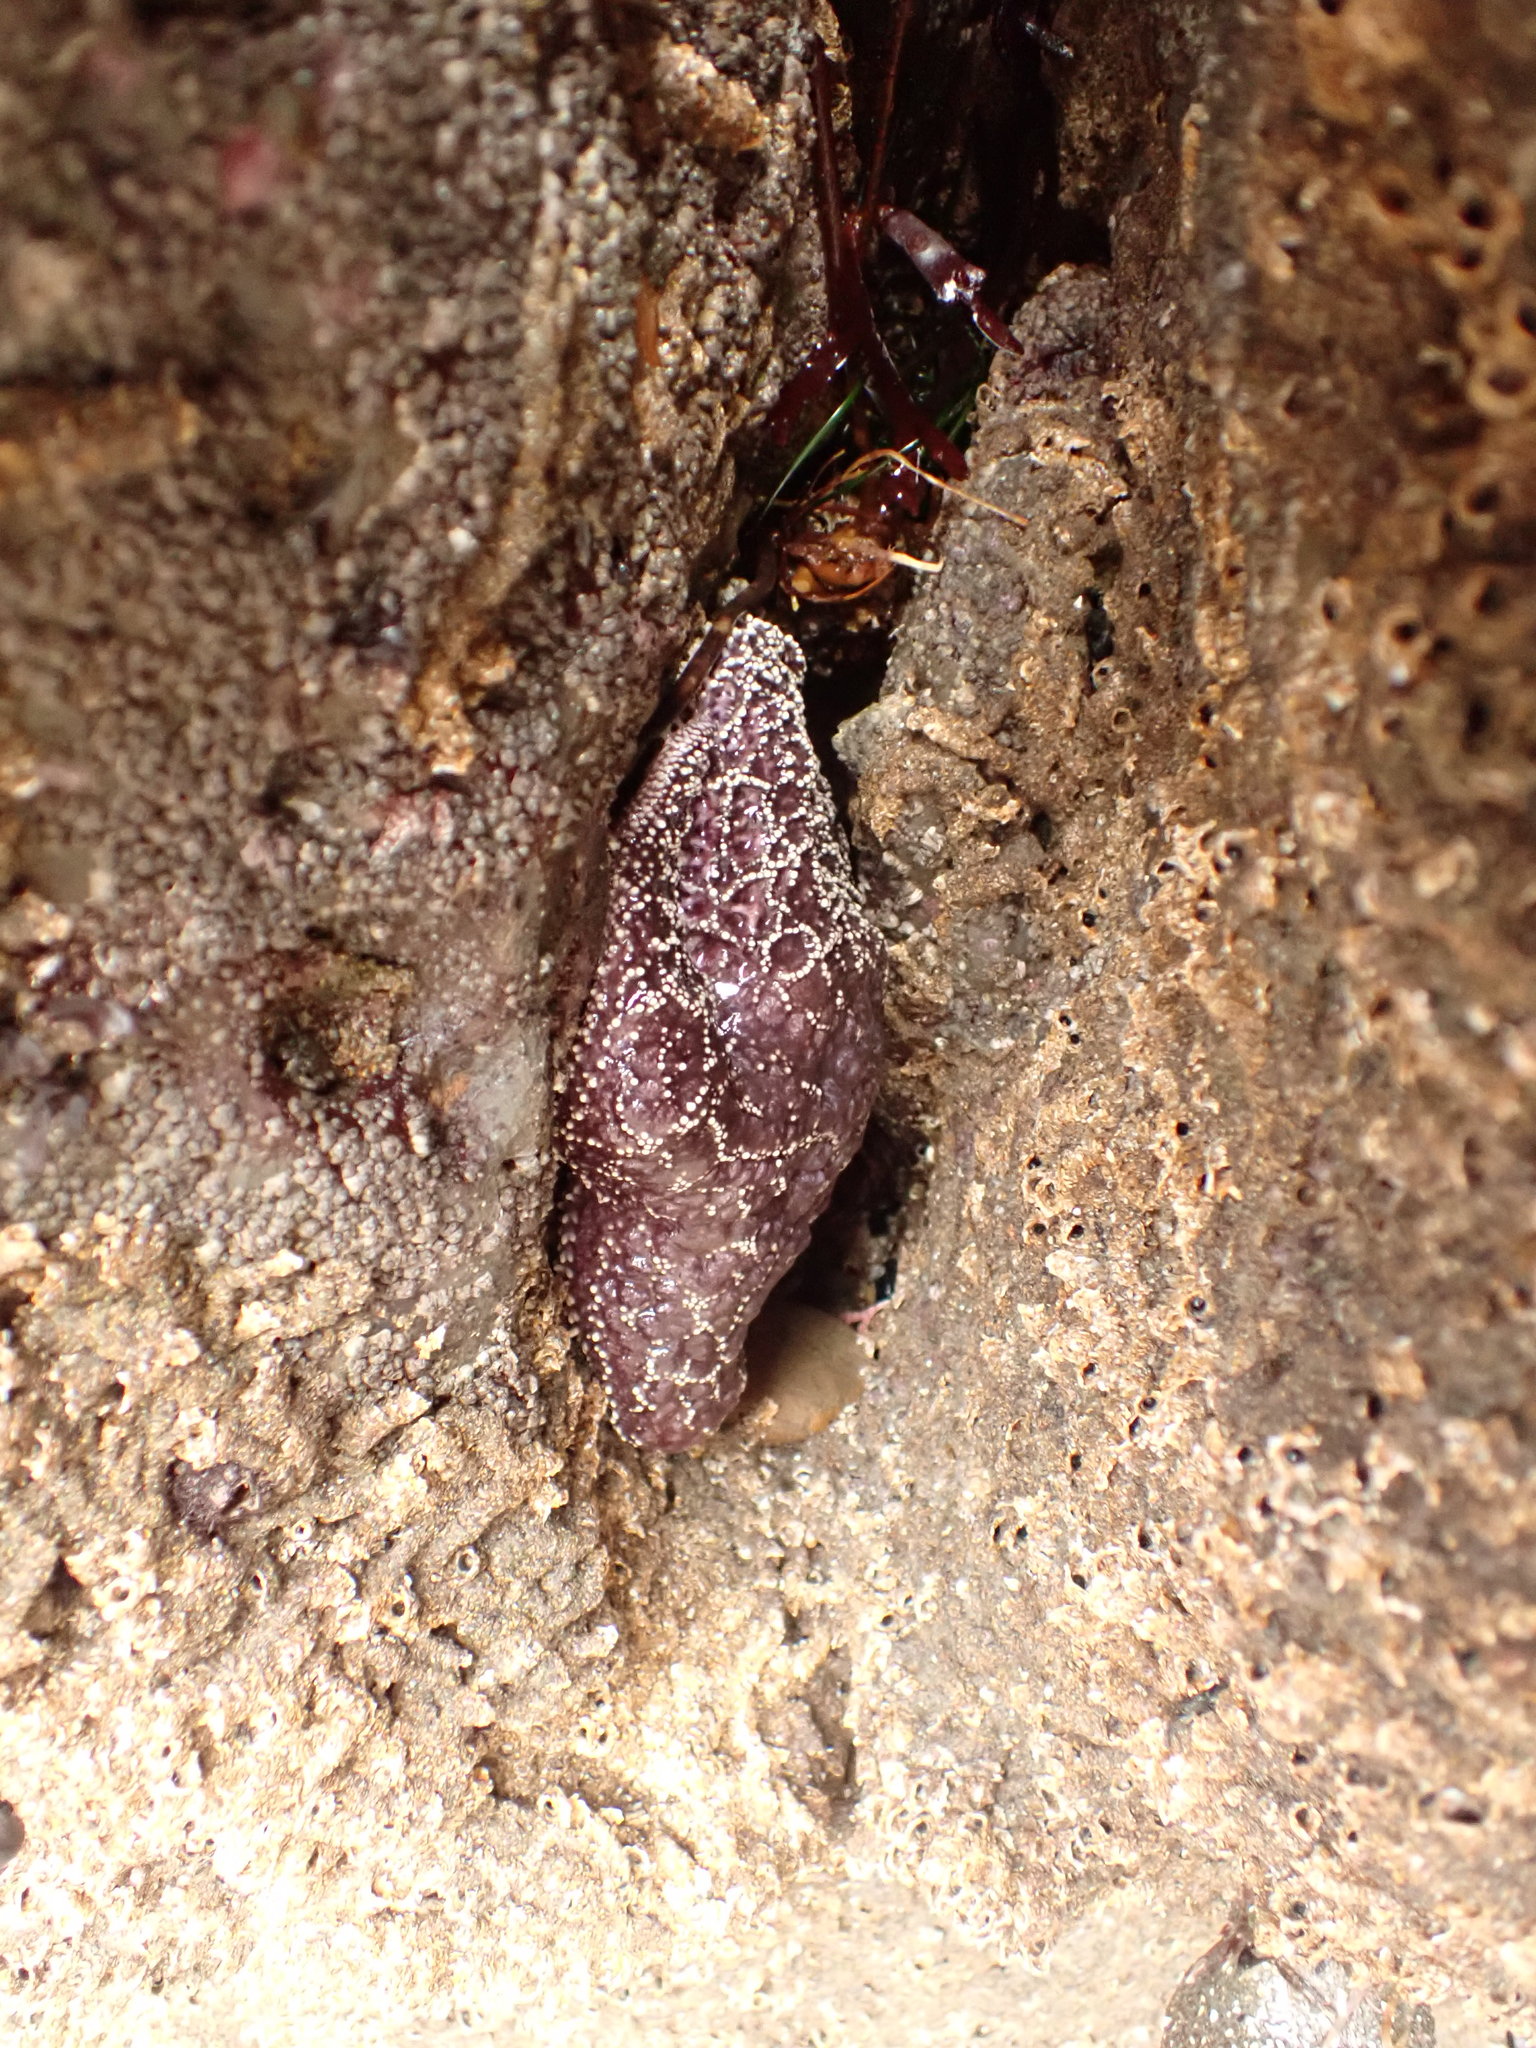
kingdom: Animalia
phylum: Echinodermata
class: Asteroidea
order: Forcipulatida
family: Asteriidae
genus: Pisaster
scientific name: Pisaster ochraceus
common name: Ochre stars
